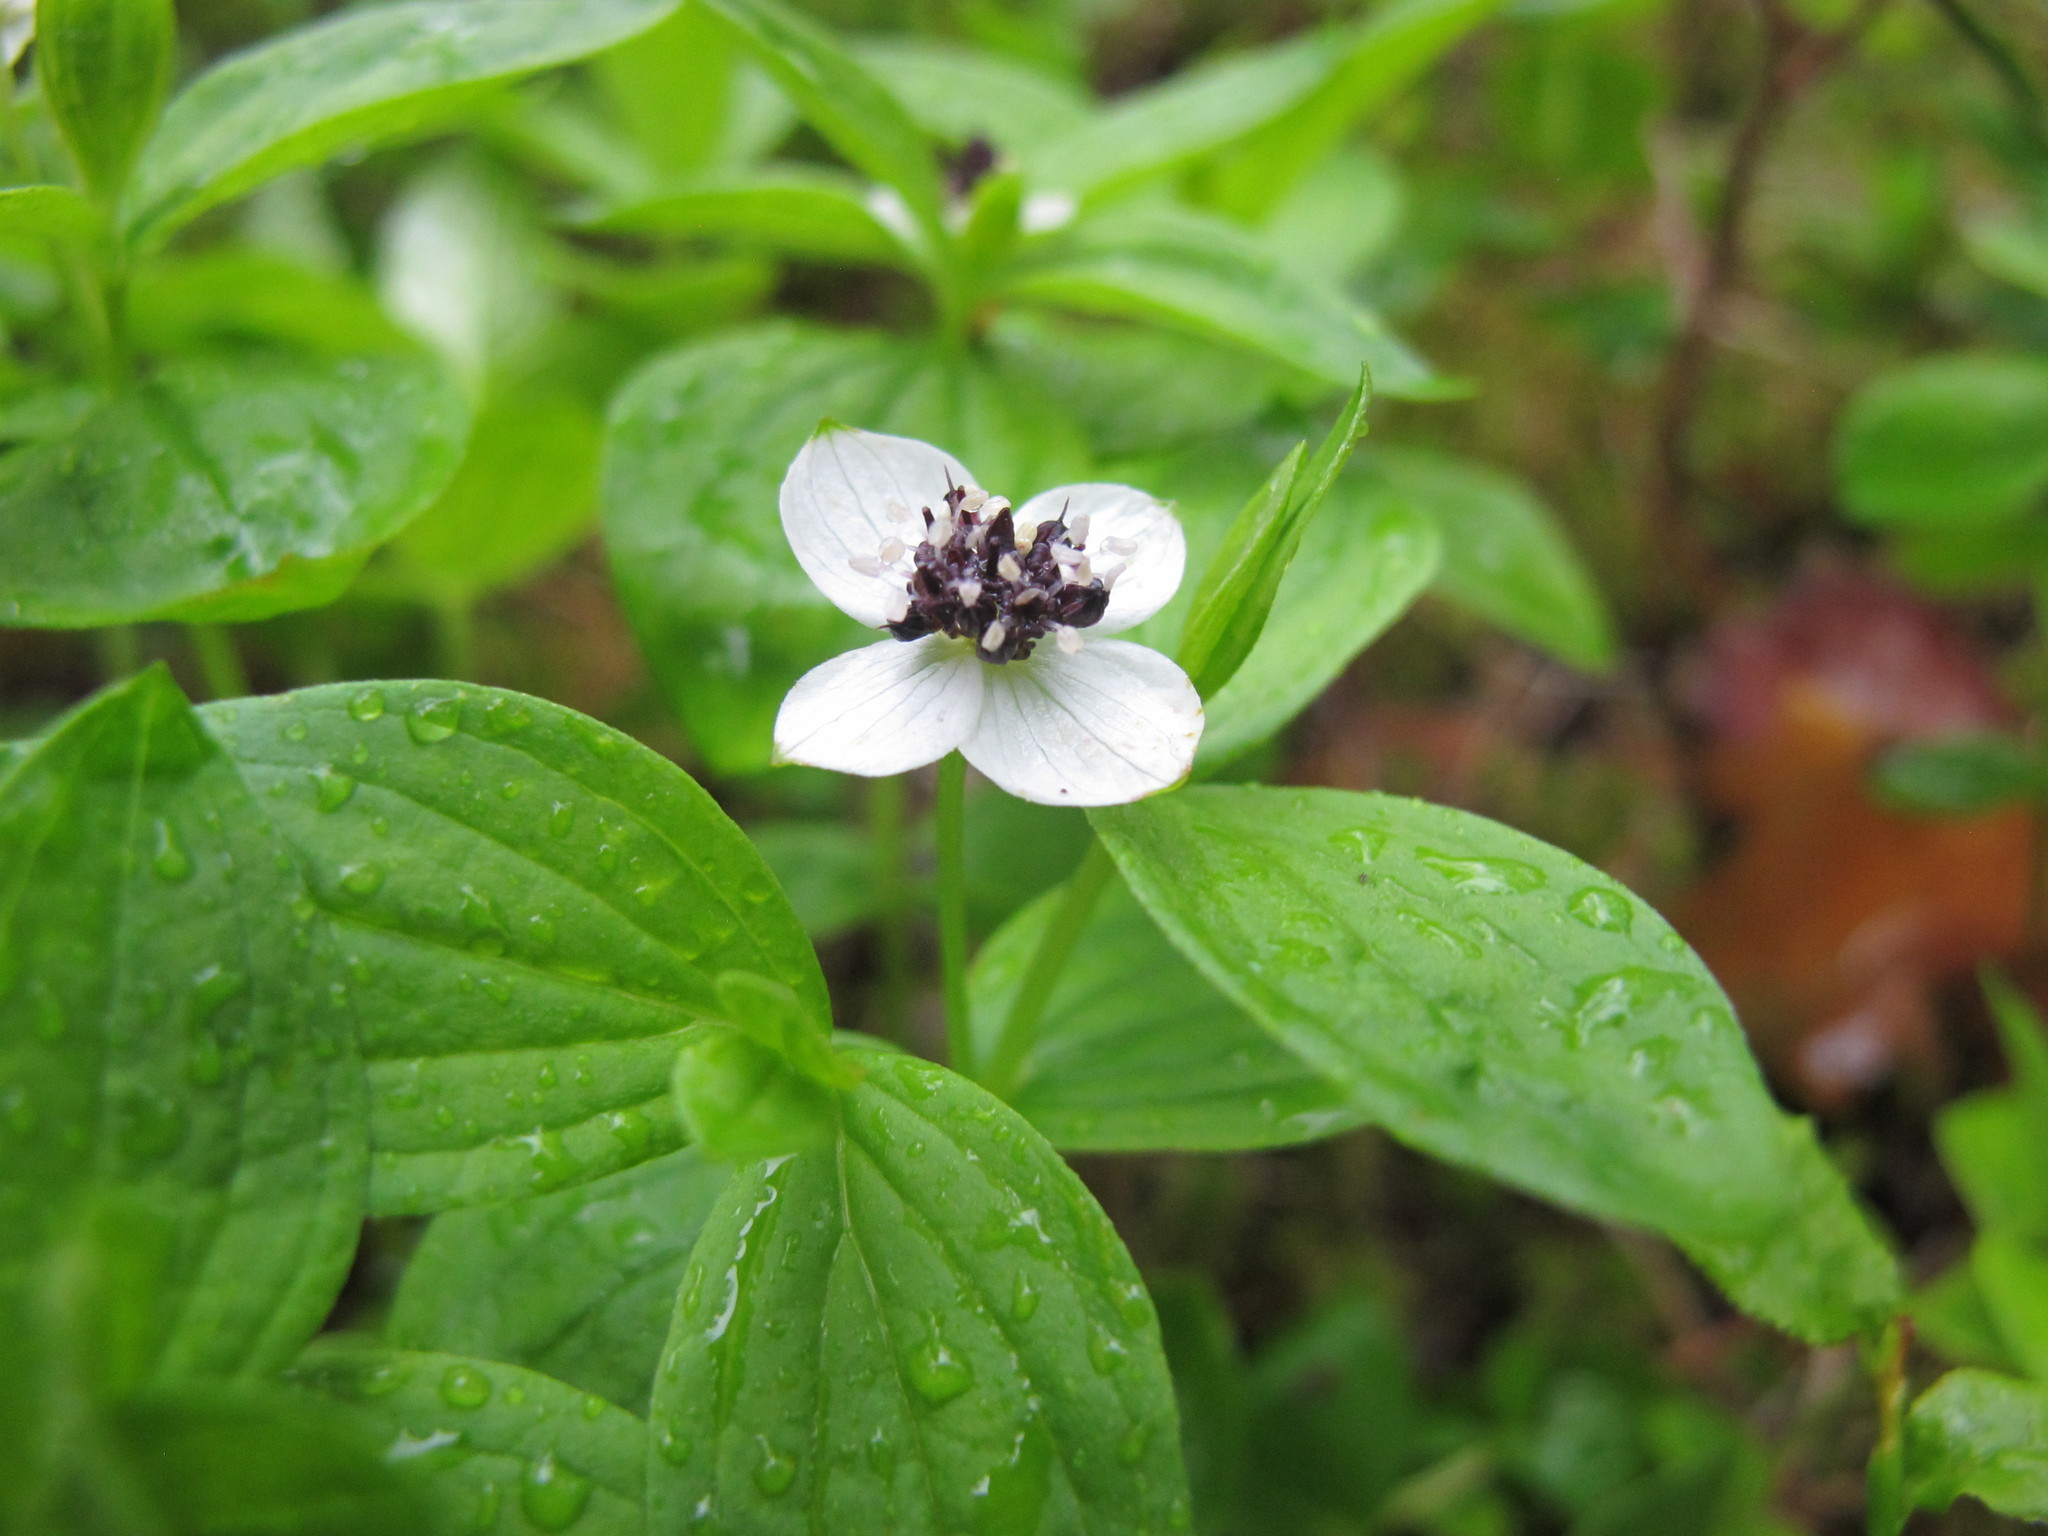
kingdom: Plantae
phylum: Tracheophyta
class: Magnoliopsida
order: Cornales
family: Cornaceae
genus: Cornus
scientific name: Cornus suecica
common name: Dwarf cornel
